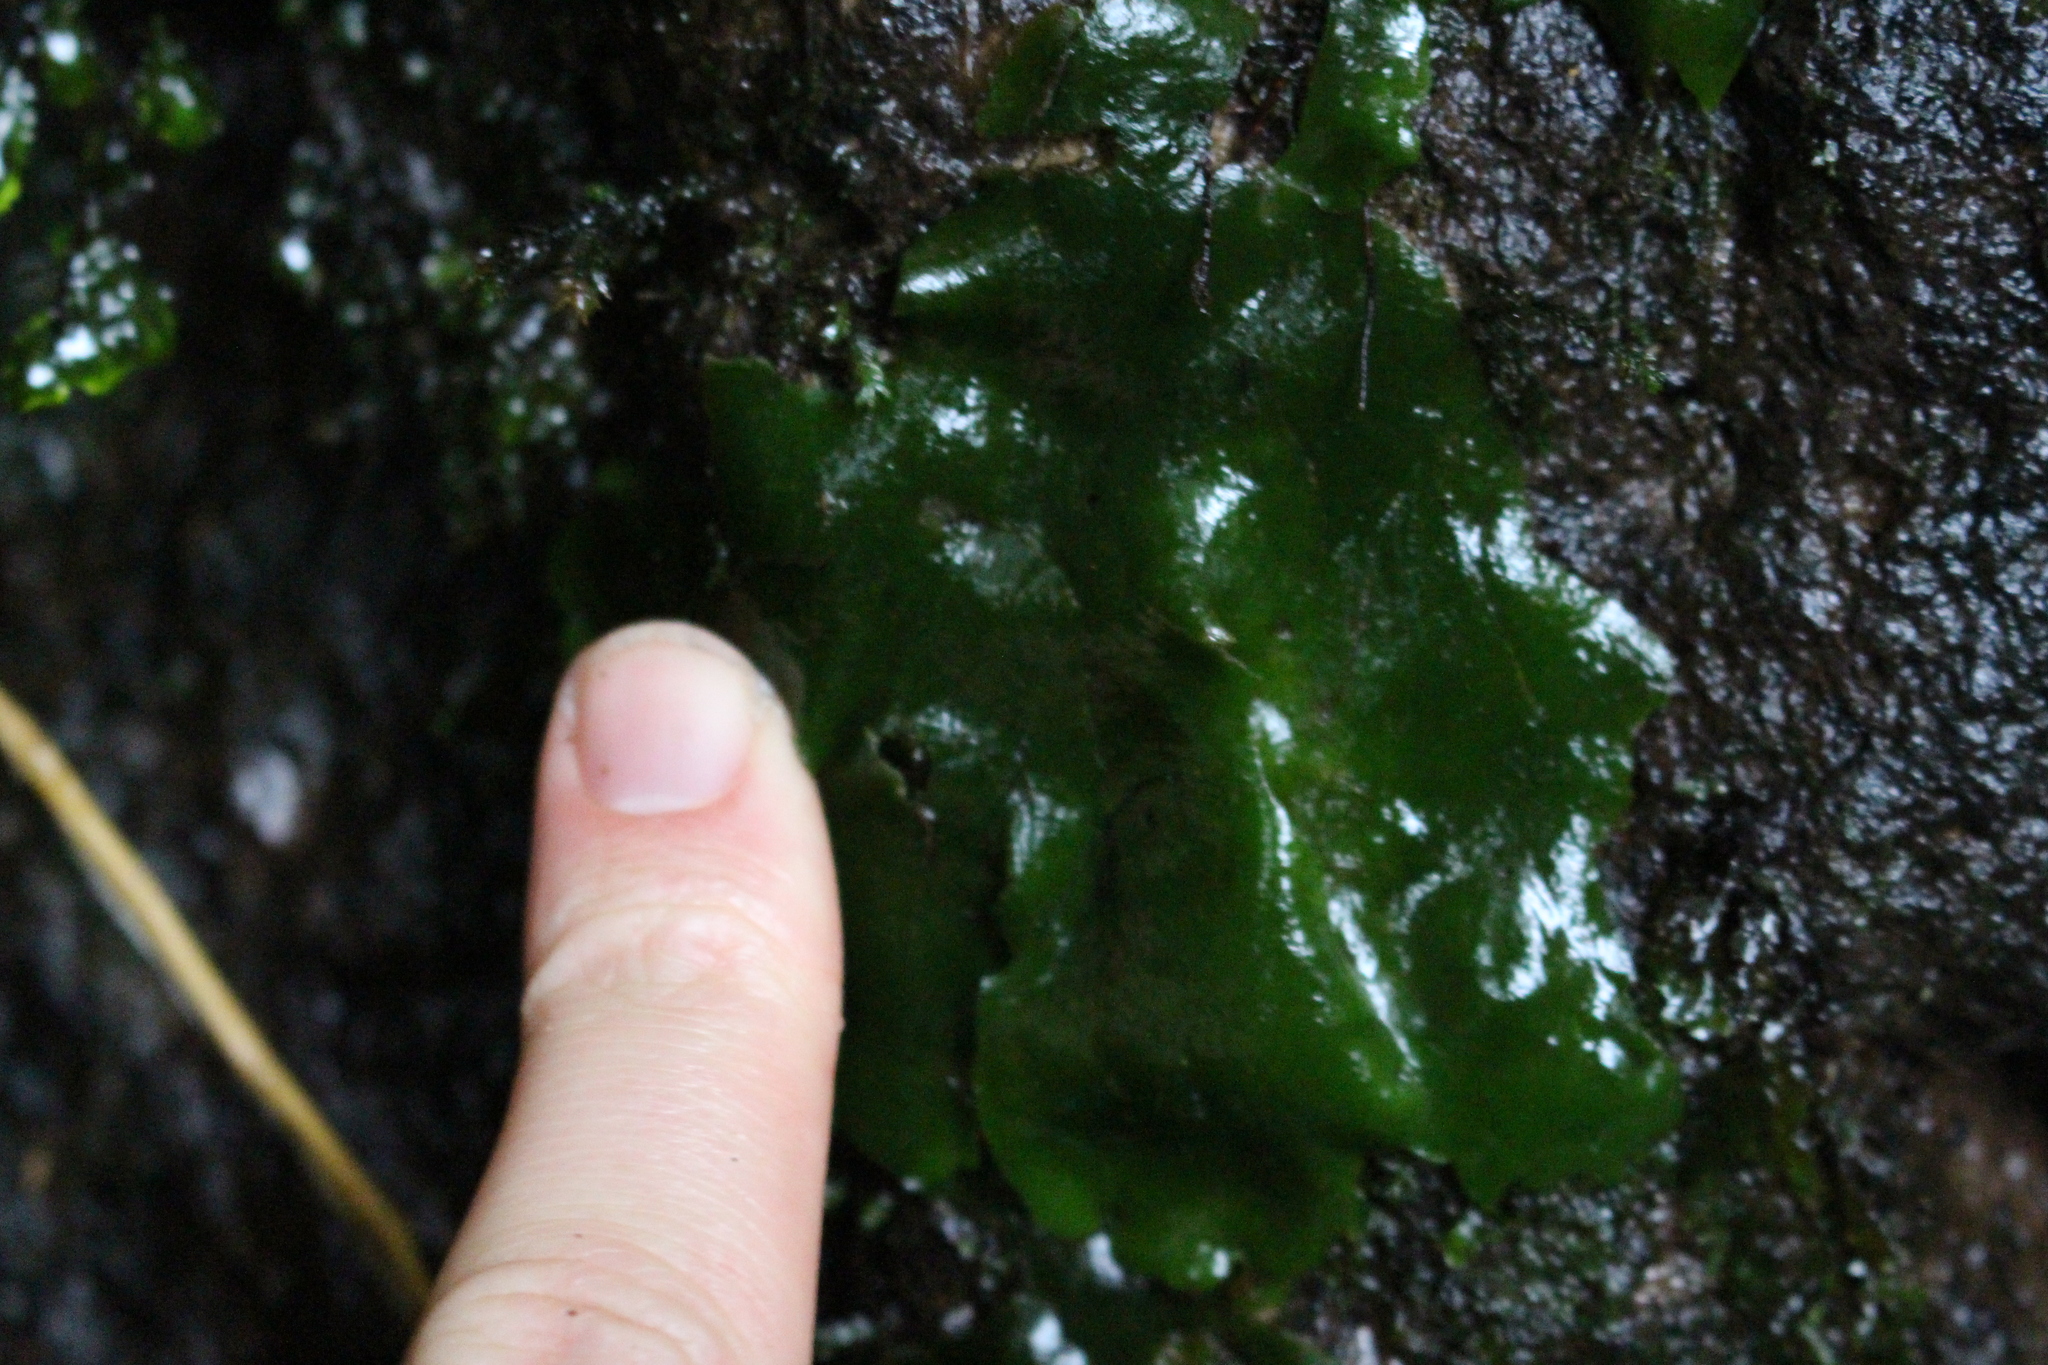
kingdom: Plantae
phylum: Marchantiophyta
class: Marchantiopsida
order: Marchantiales
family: Monocleaceae
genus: Monoclea
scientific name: Monoclea forsteri
